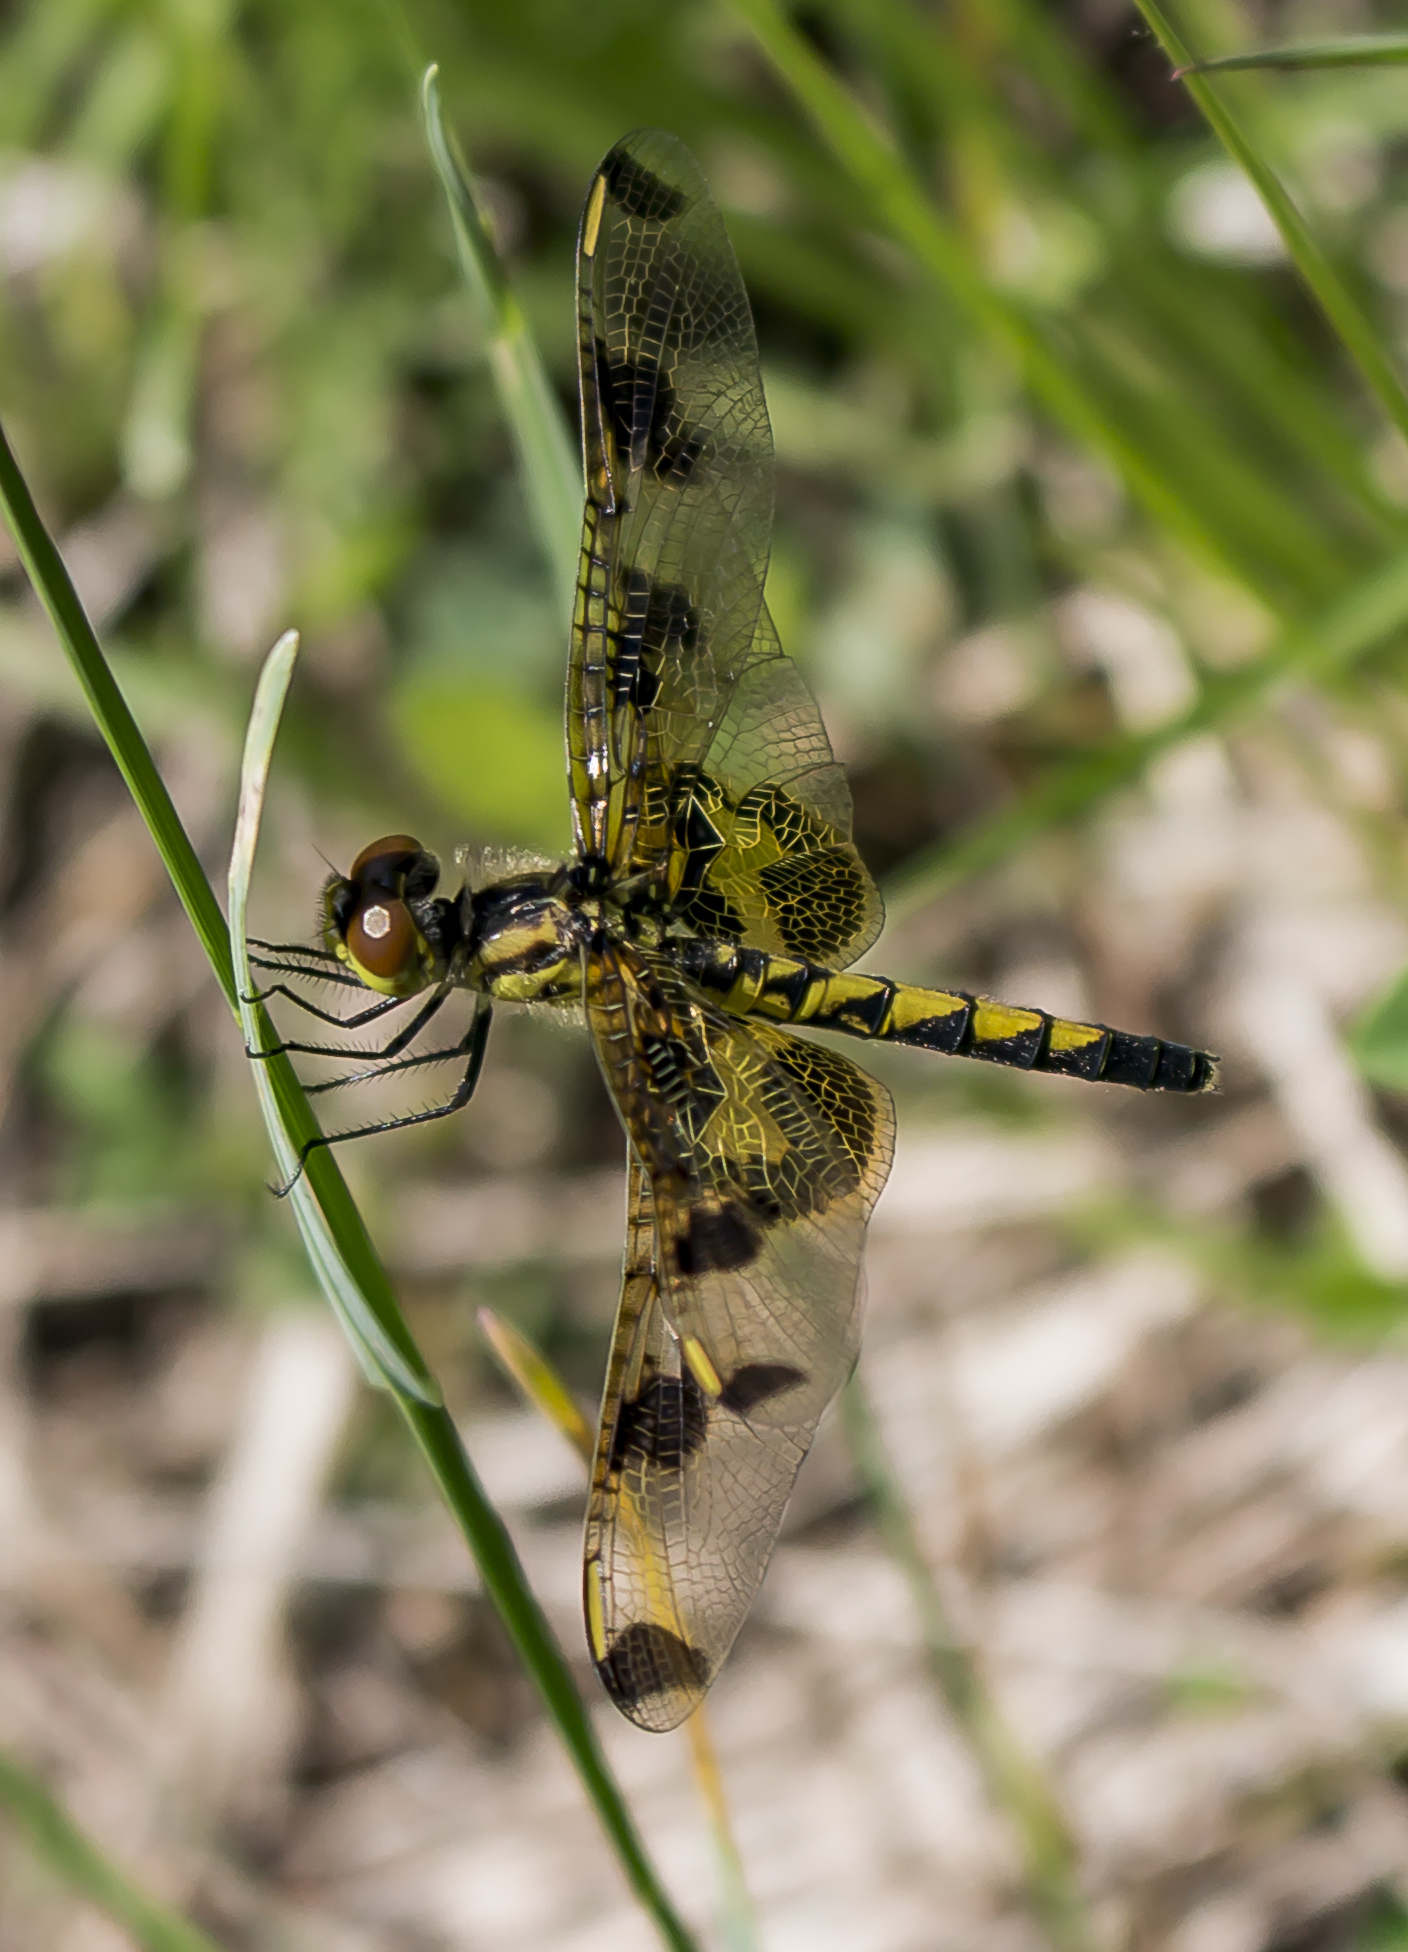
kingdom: Animalia
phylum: Arthropoda
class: Insecta
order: Odonata
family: Libellulidae
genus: Celithemis
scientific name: Celithemis elisa
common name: Calico pennant
